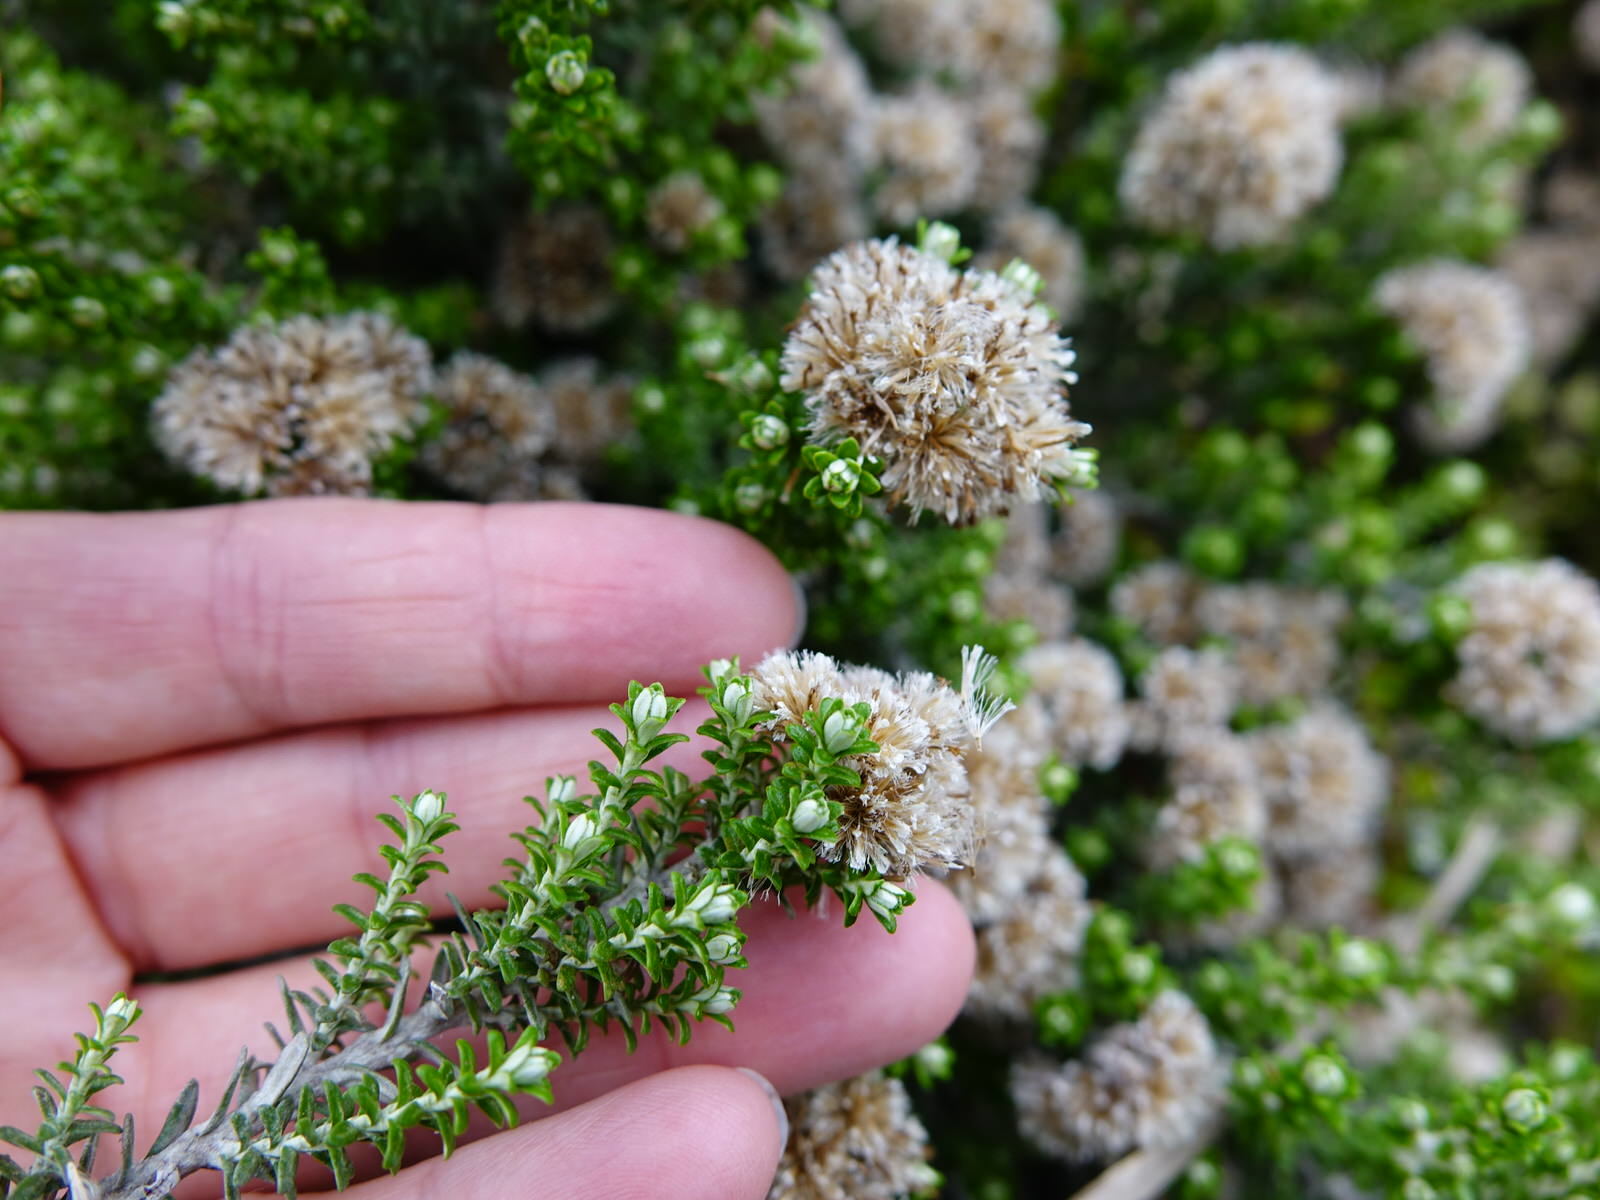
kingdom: Plantae
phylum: Tracheophyta
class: Magnoliopsida
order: Asterales
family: Asteraceae
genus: Ozothamnus
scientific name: Ozothamnus leptophyllus
